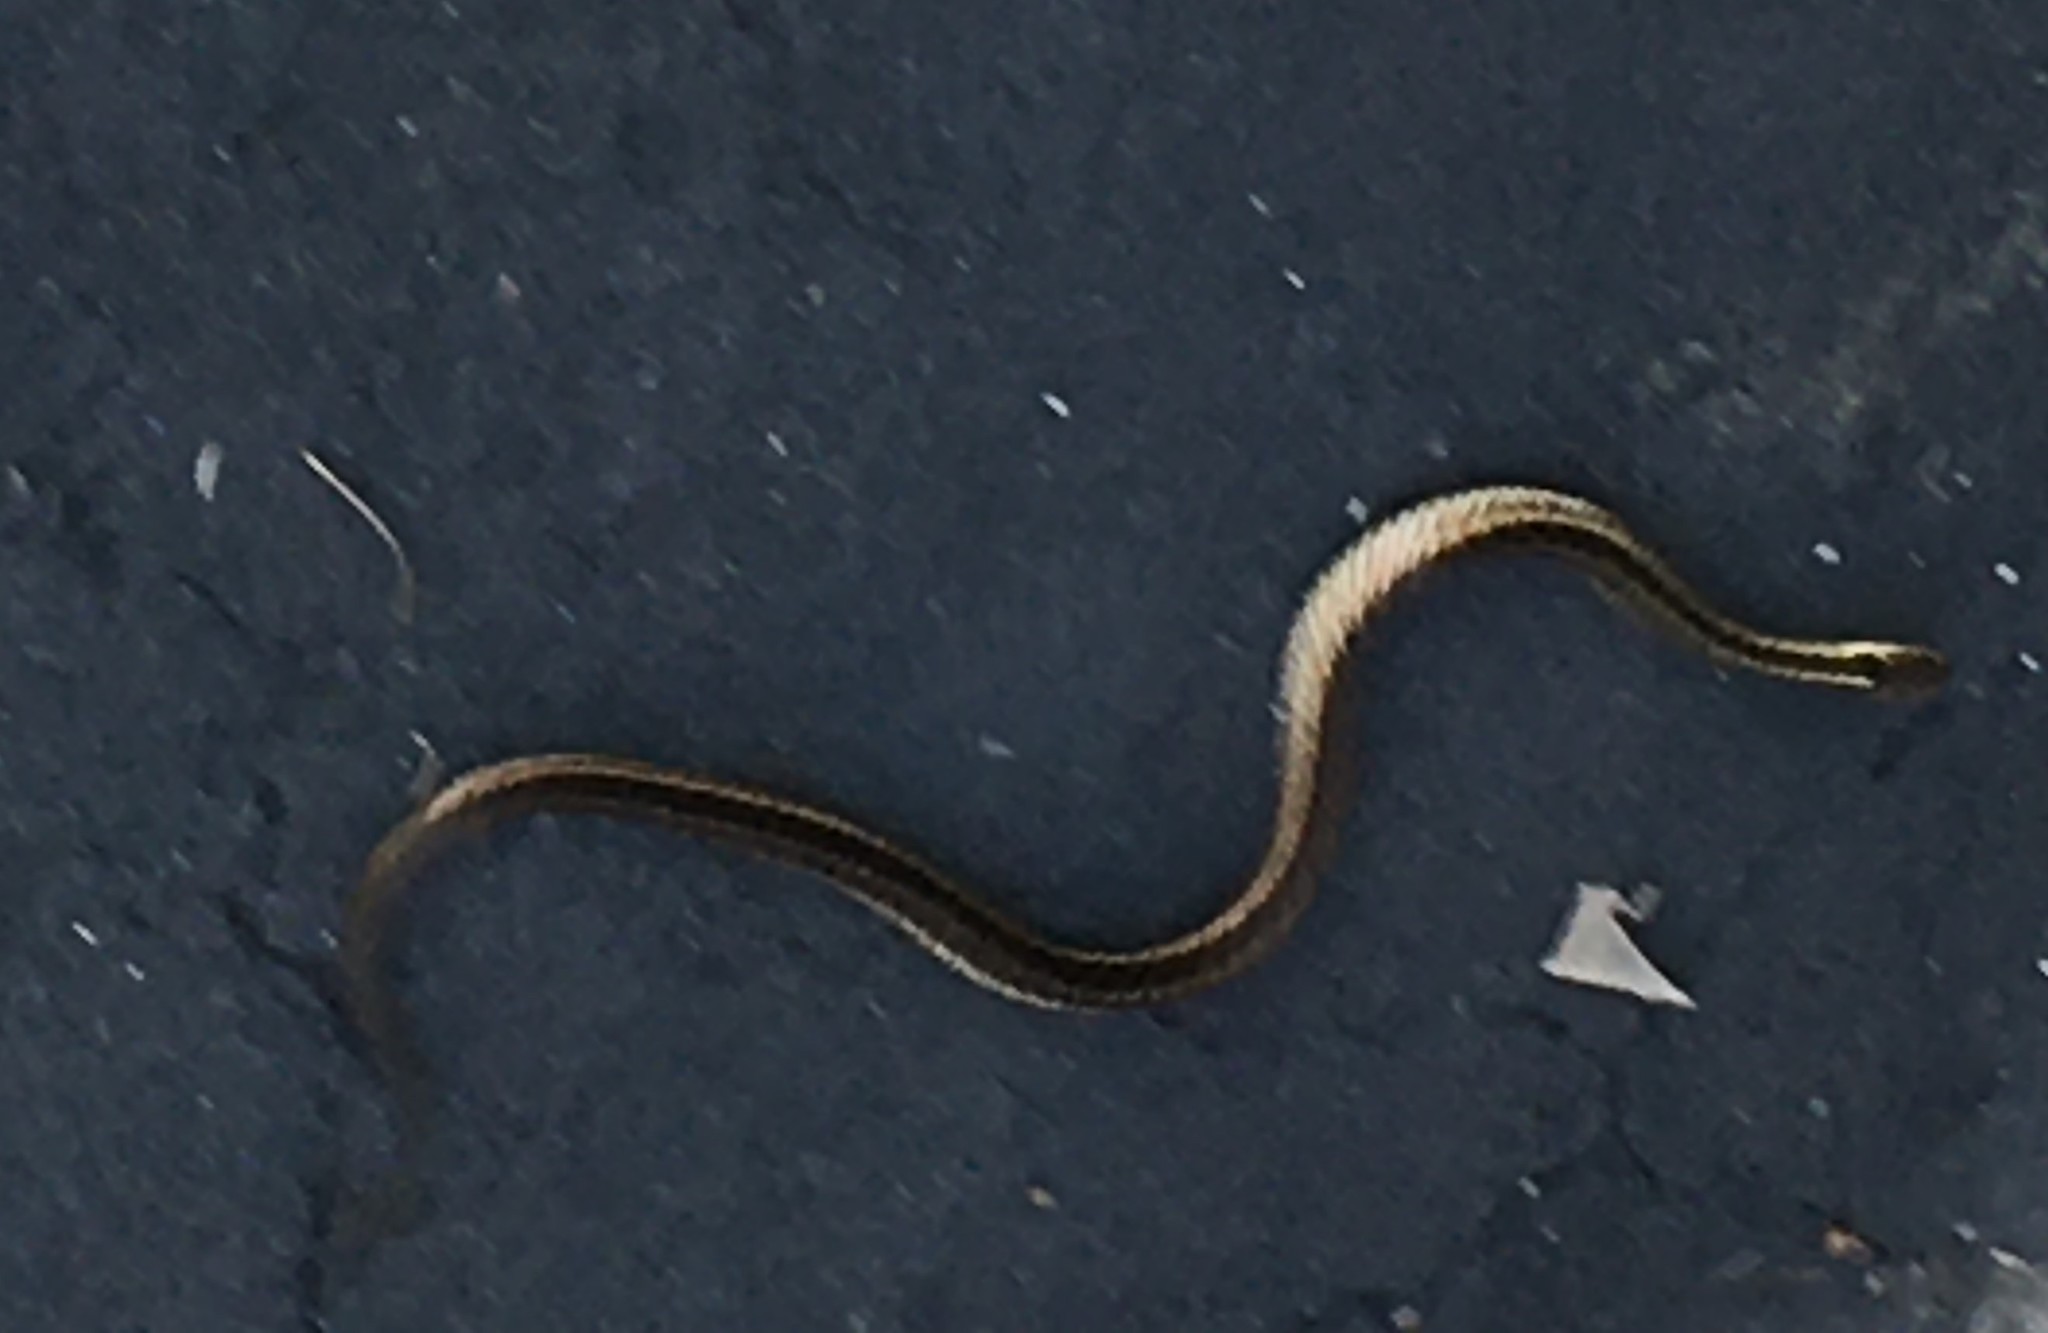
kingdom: Animalia
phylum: Chordata
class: Squamata
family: Colubridae
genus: Thamnophis
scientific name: Thamnophis sirtalis
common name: Common garter snake
